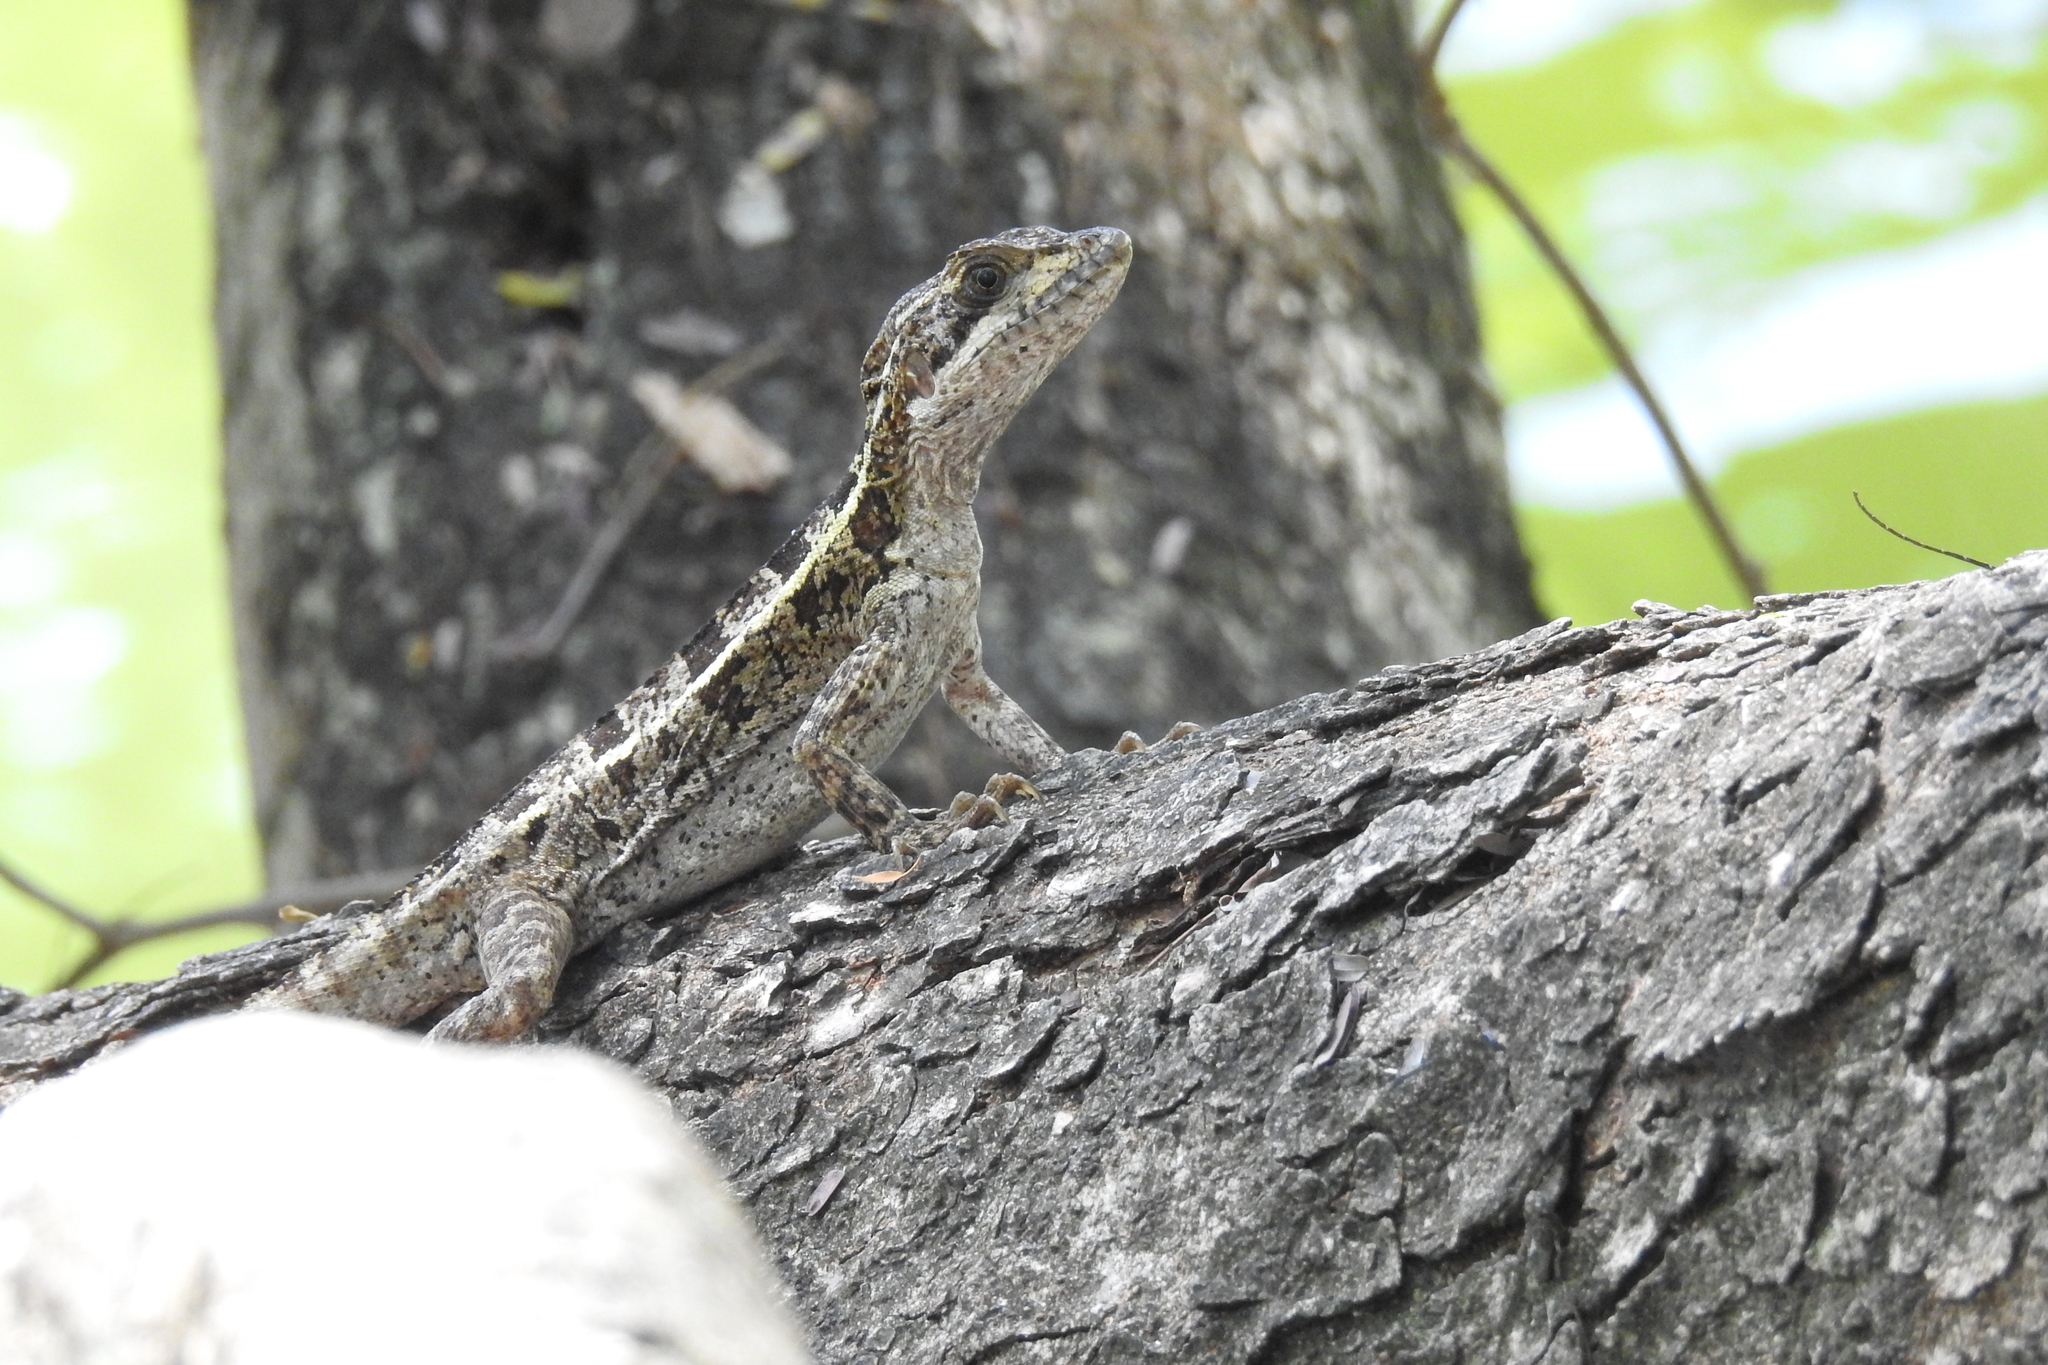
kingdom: Animalia
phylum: Chordata
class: Squamata
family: Corytophanidae
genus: Basiliscus
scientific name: Basiliscus vittatus
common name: Brown basilisk
